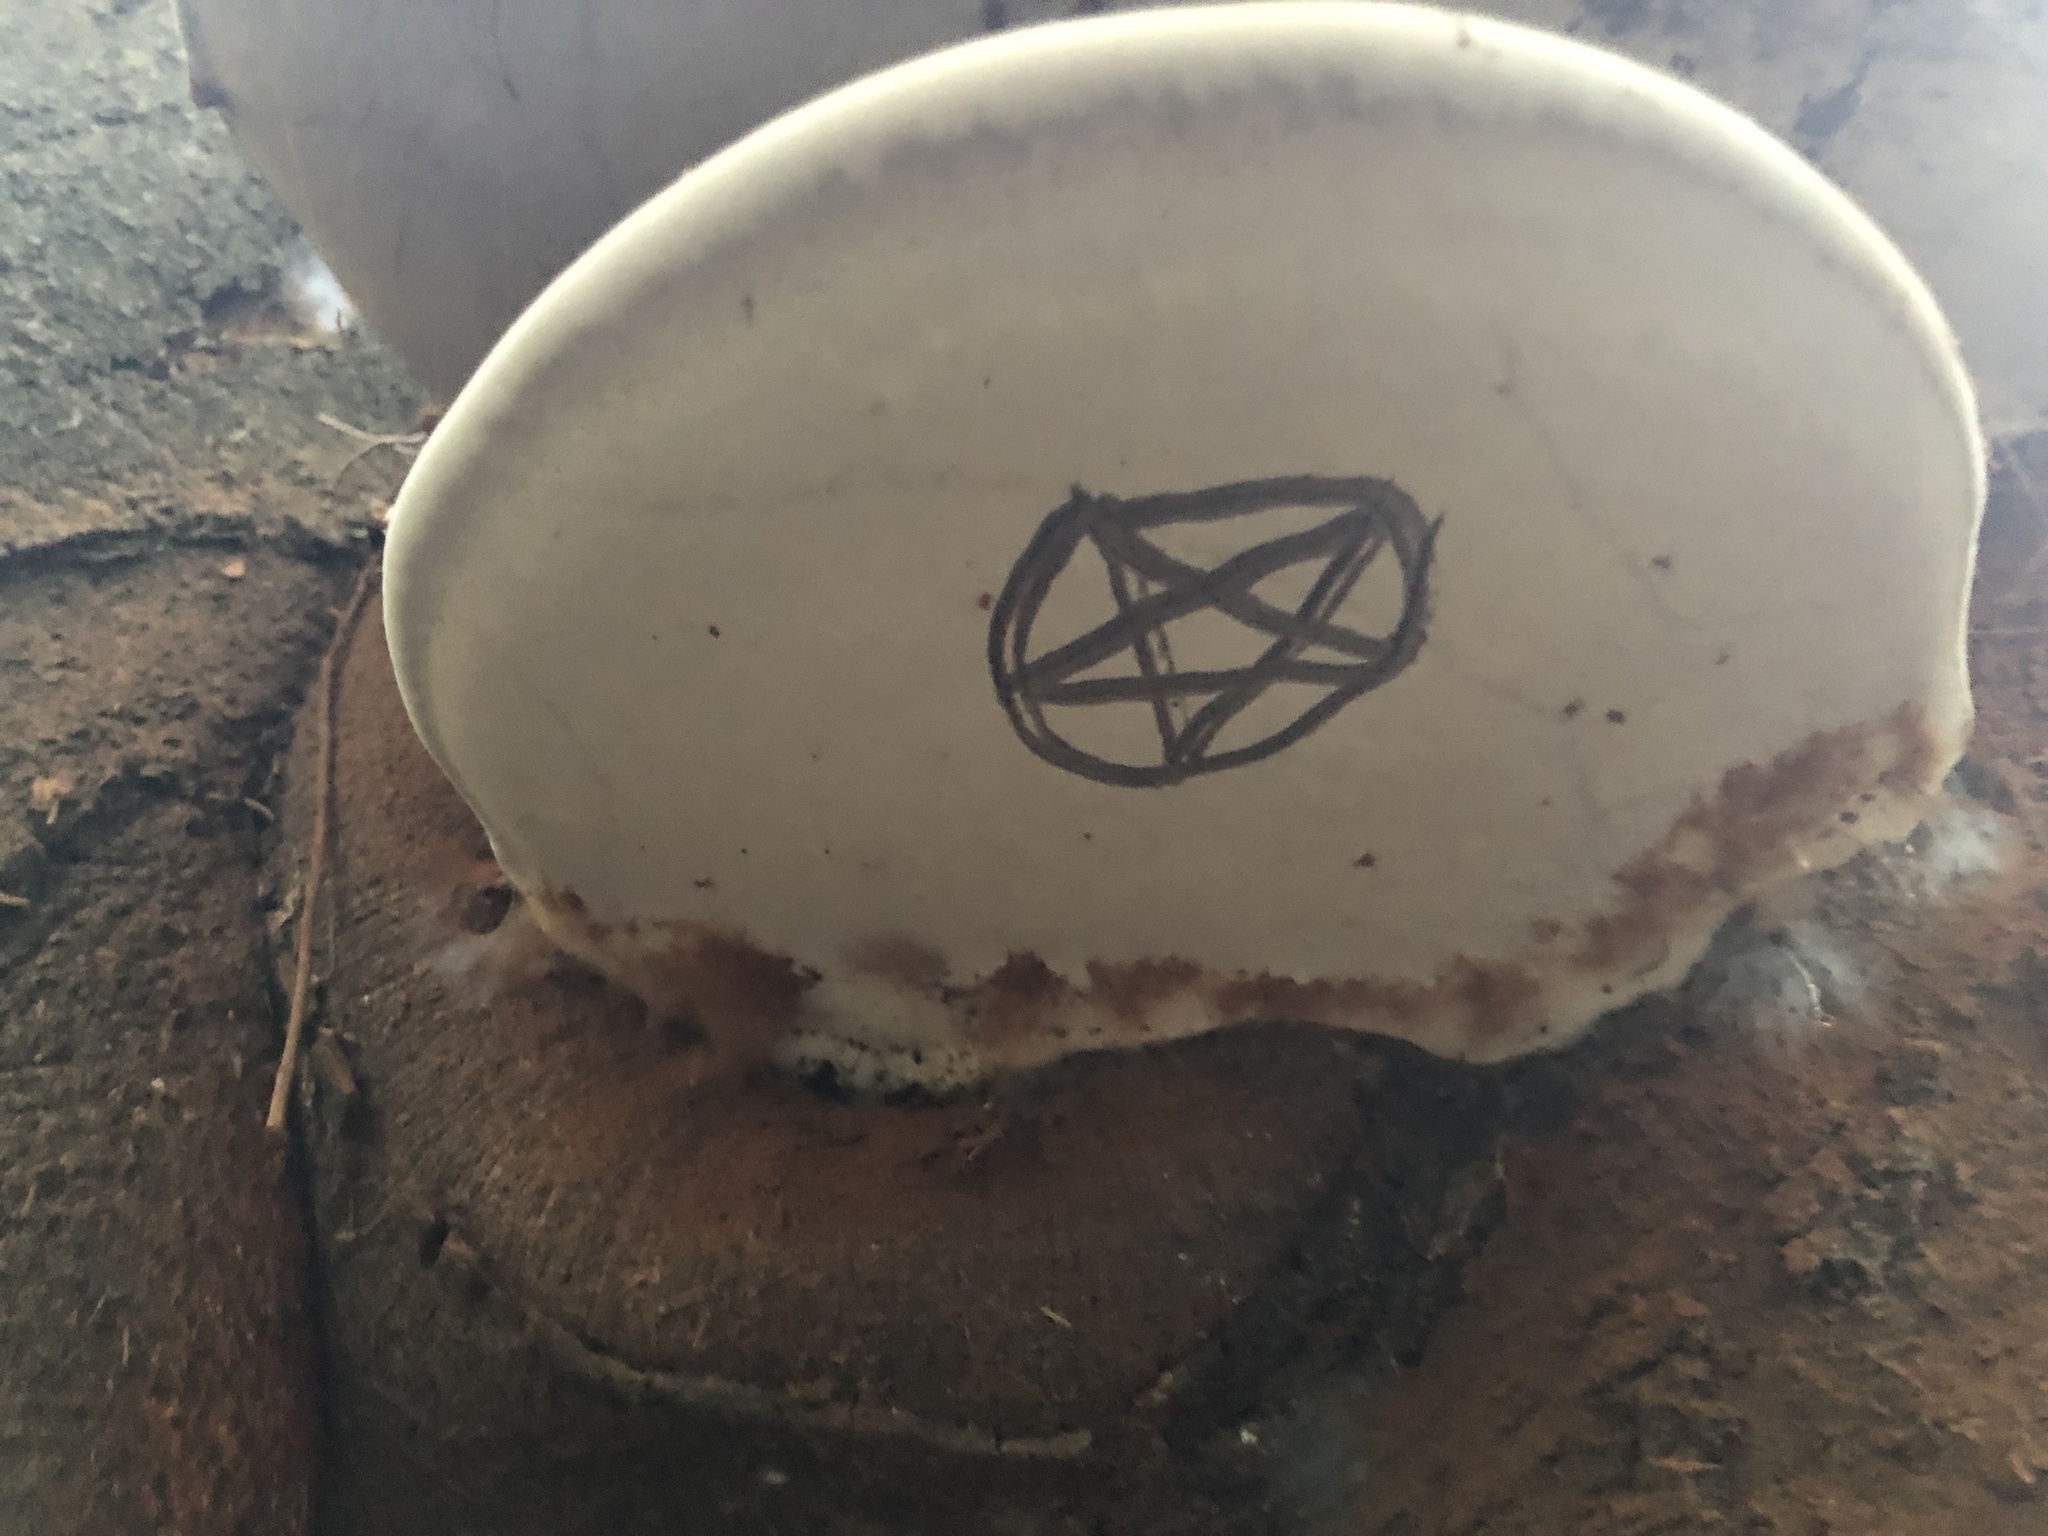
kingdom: Fungi
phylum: Basidiomycota
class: Agaricomycetes
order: Polyporales
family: Polyporaceae
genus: Ganoderma
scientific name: Ganoderma brownii
